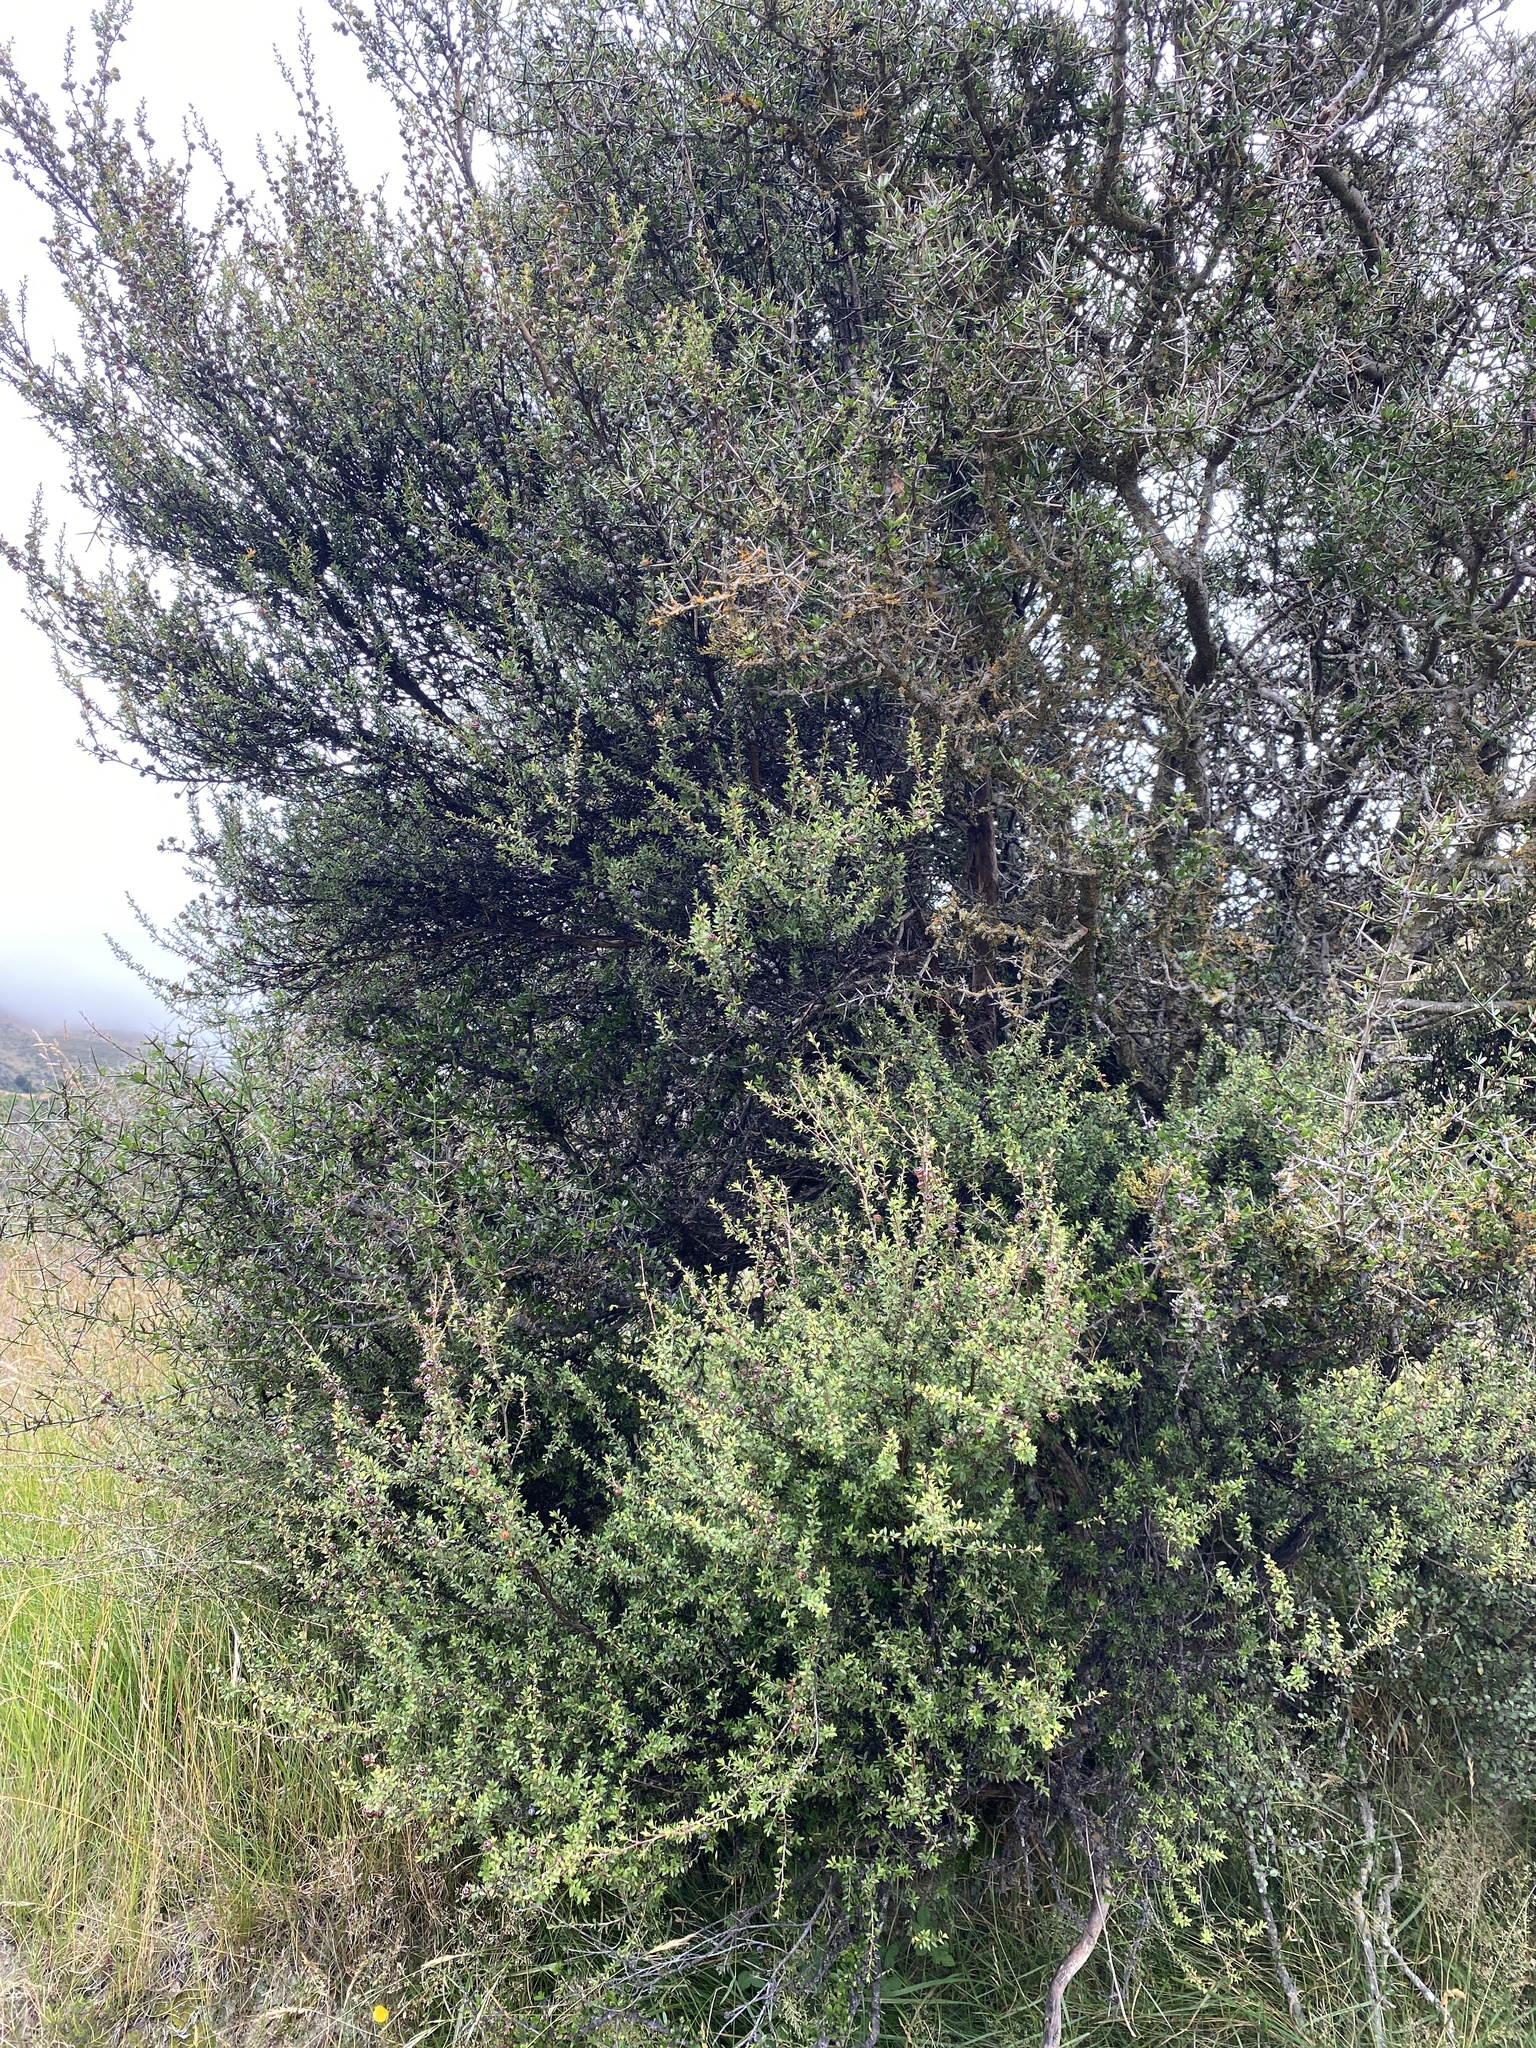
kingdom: Plantae
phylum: Tracheophyta
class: Magnoliopsida
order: Myrtales
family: Myrtaceae
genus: Leptospermum
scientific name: Leptospermum scoparium
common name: Broom tea-tree
